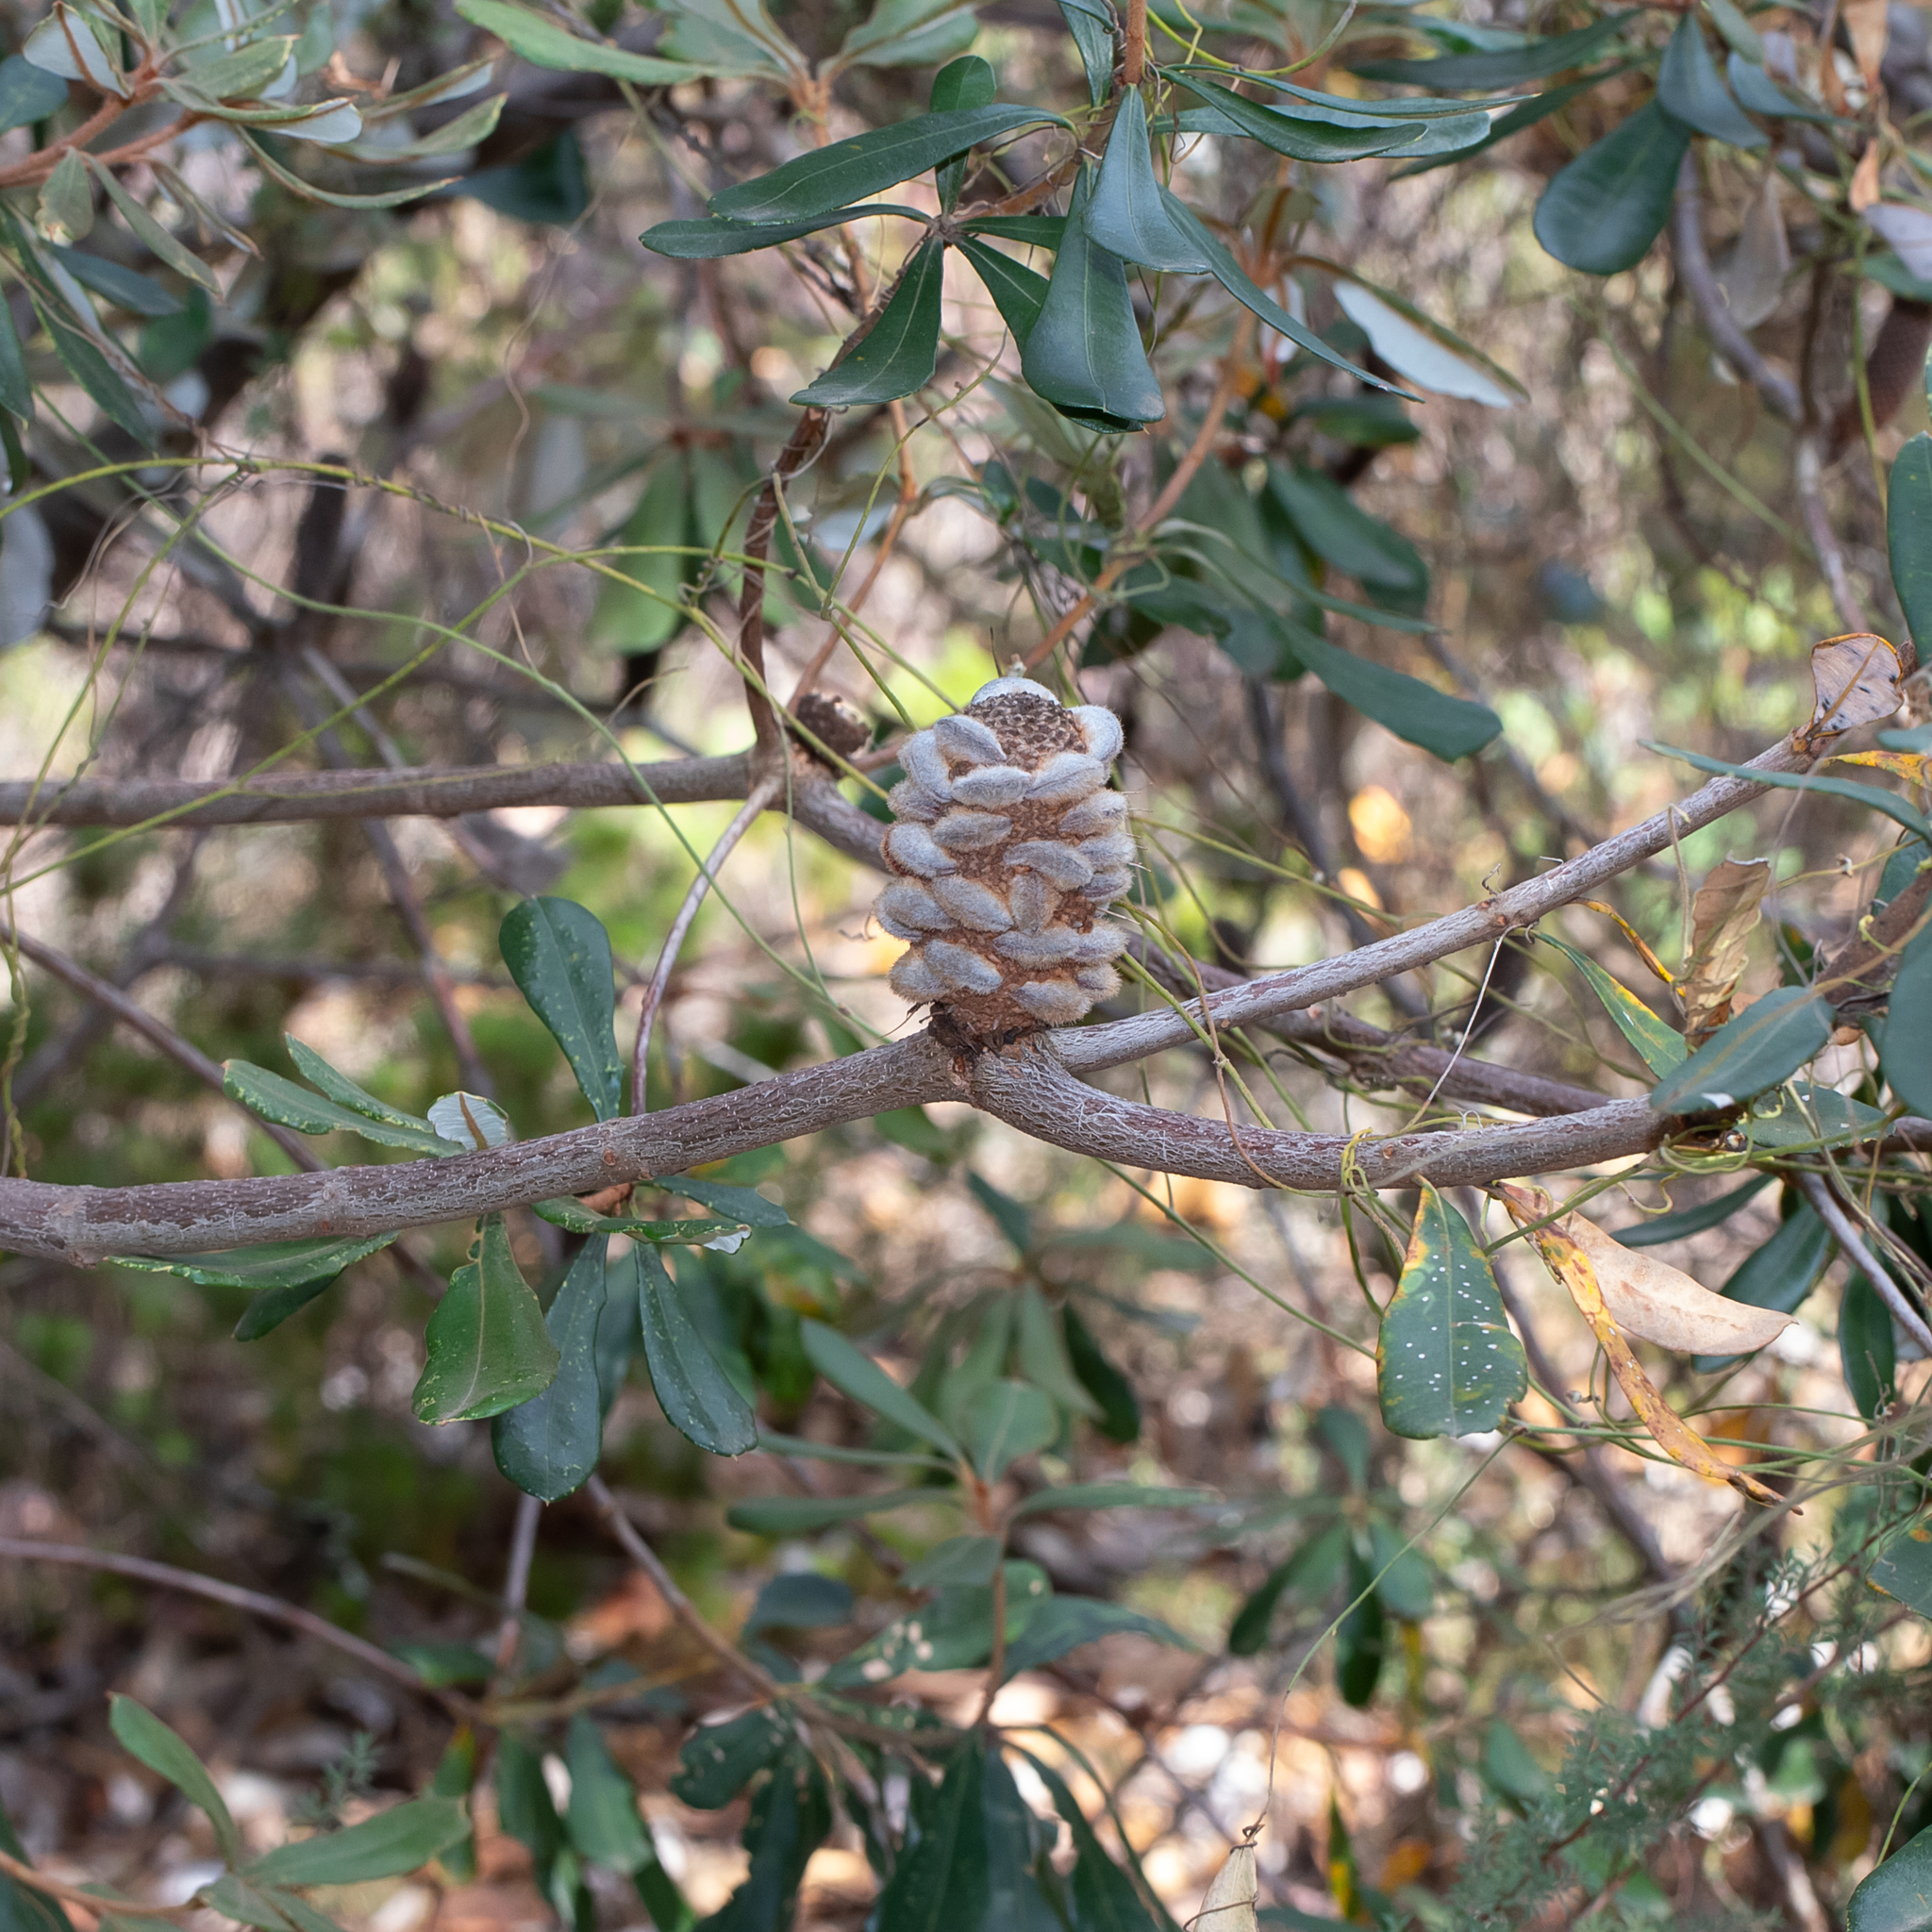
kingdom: Plantae
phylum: Tracheophyta
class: Magnoliopsida
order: Proteales
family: Proteaceae
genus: Banksia
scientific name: Banksia saxicola
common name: Grampians banksia
